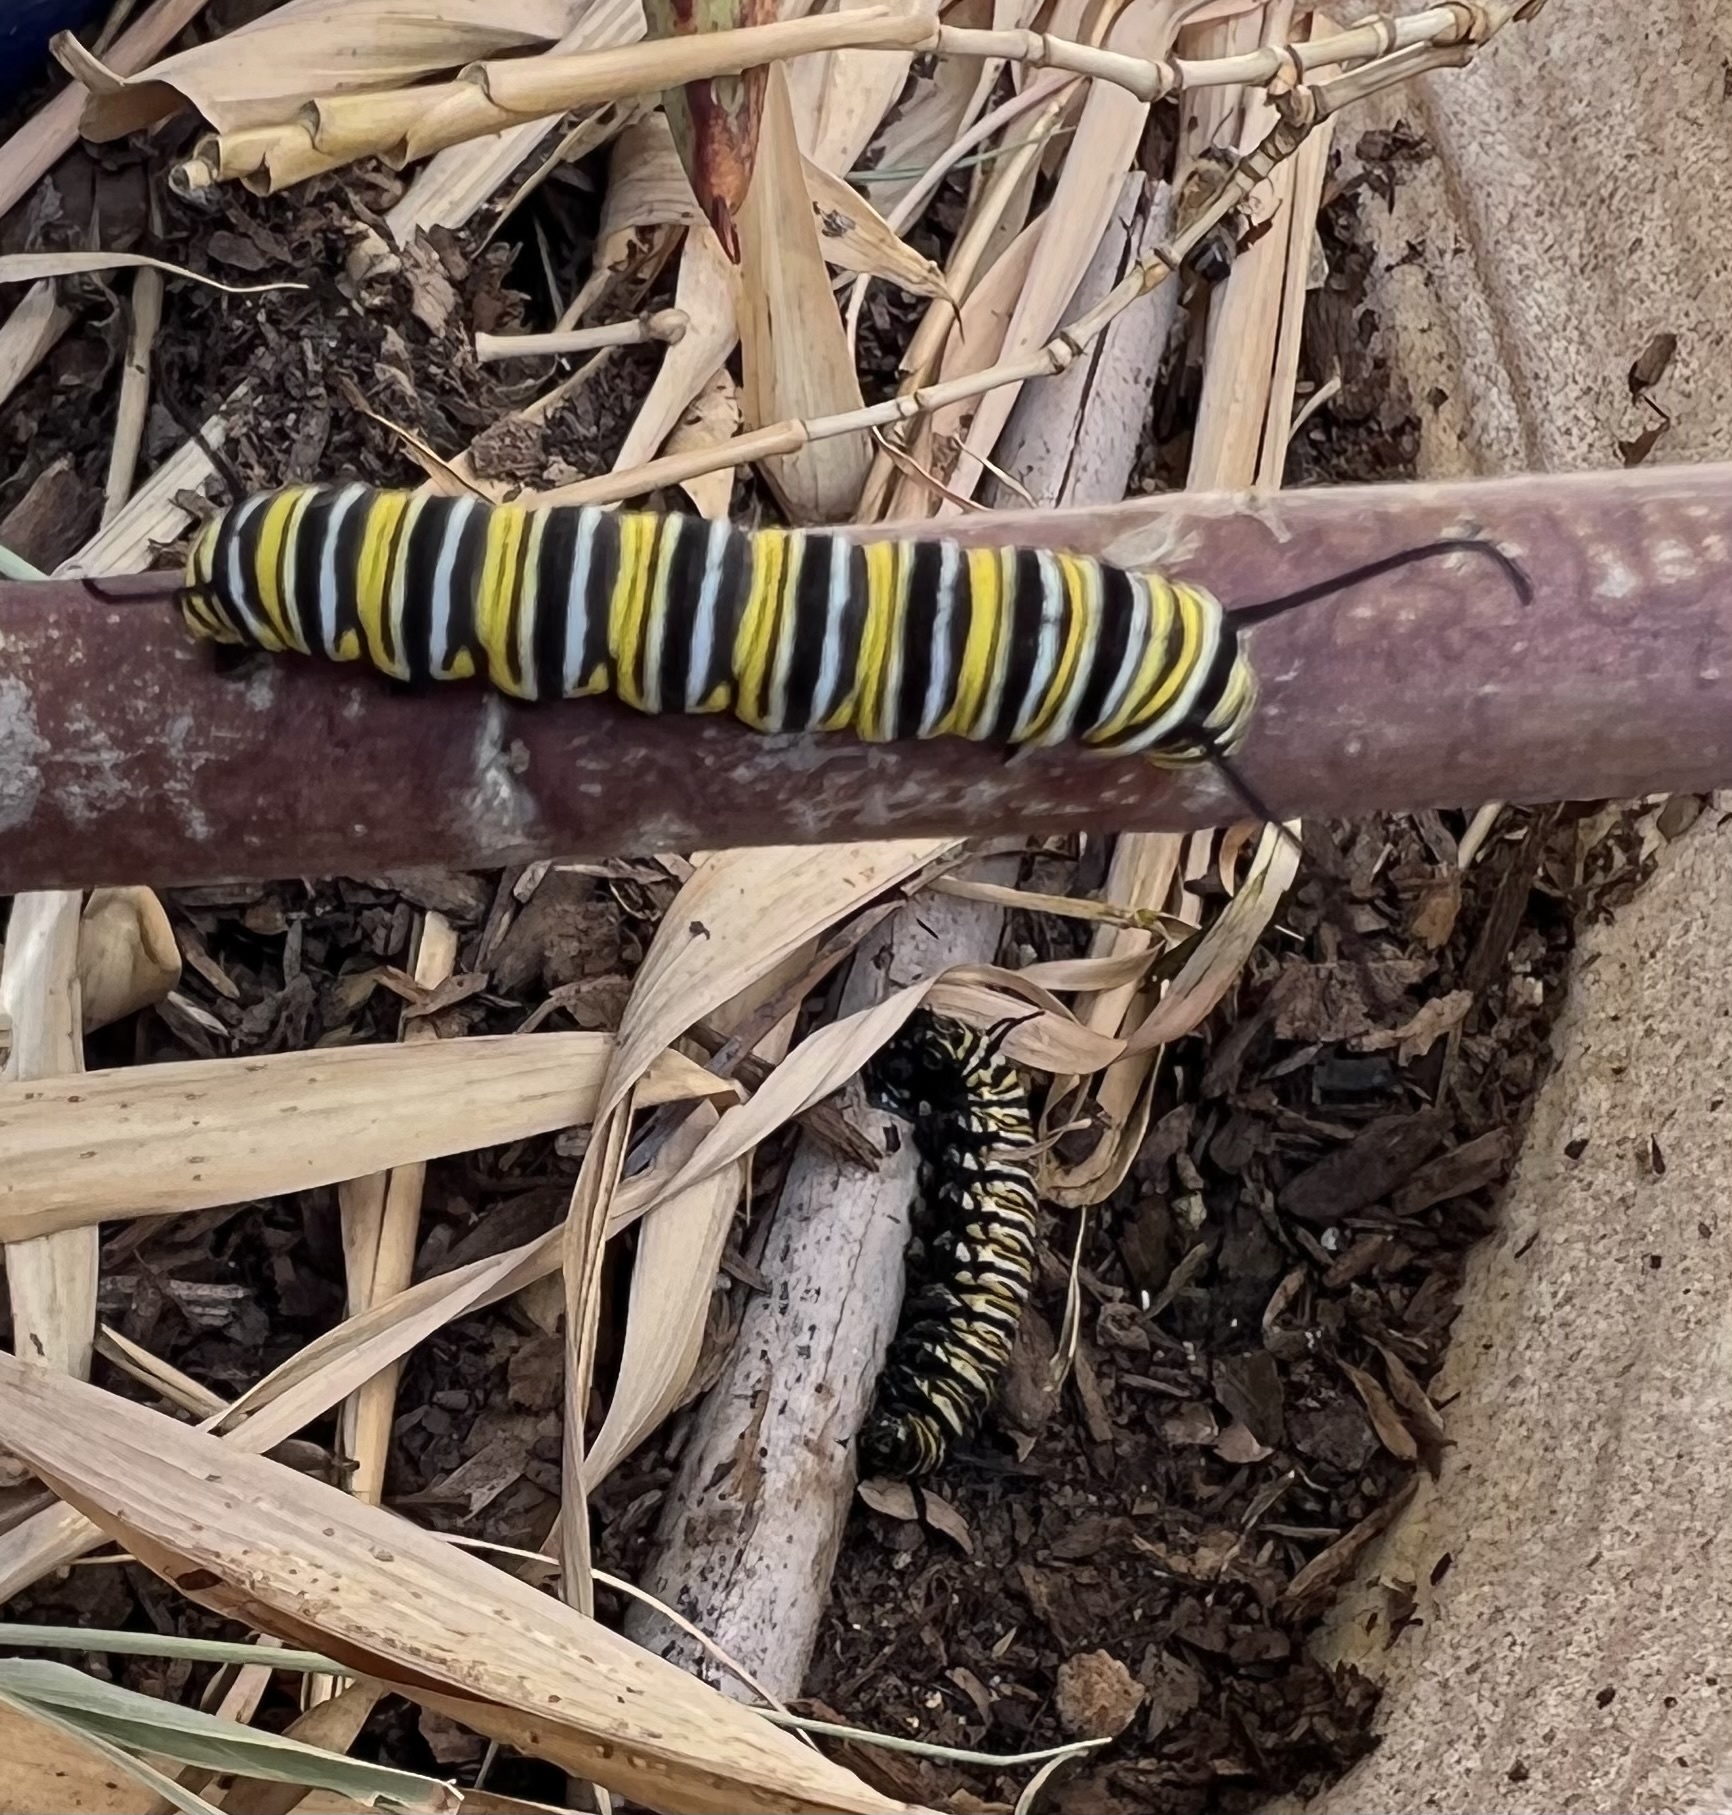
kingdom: Animalia
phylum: Arthropoda
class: Insecta
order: Lepidoptera
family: Nymphalidae
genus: Danaus
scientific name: Danaus plexippus
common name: Monarch
